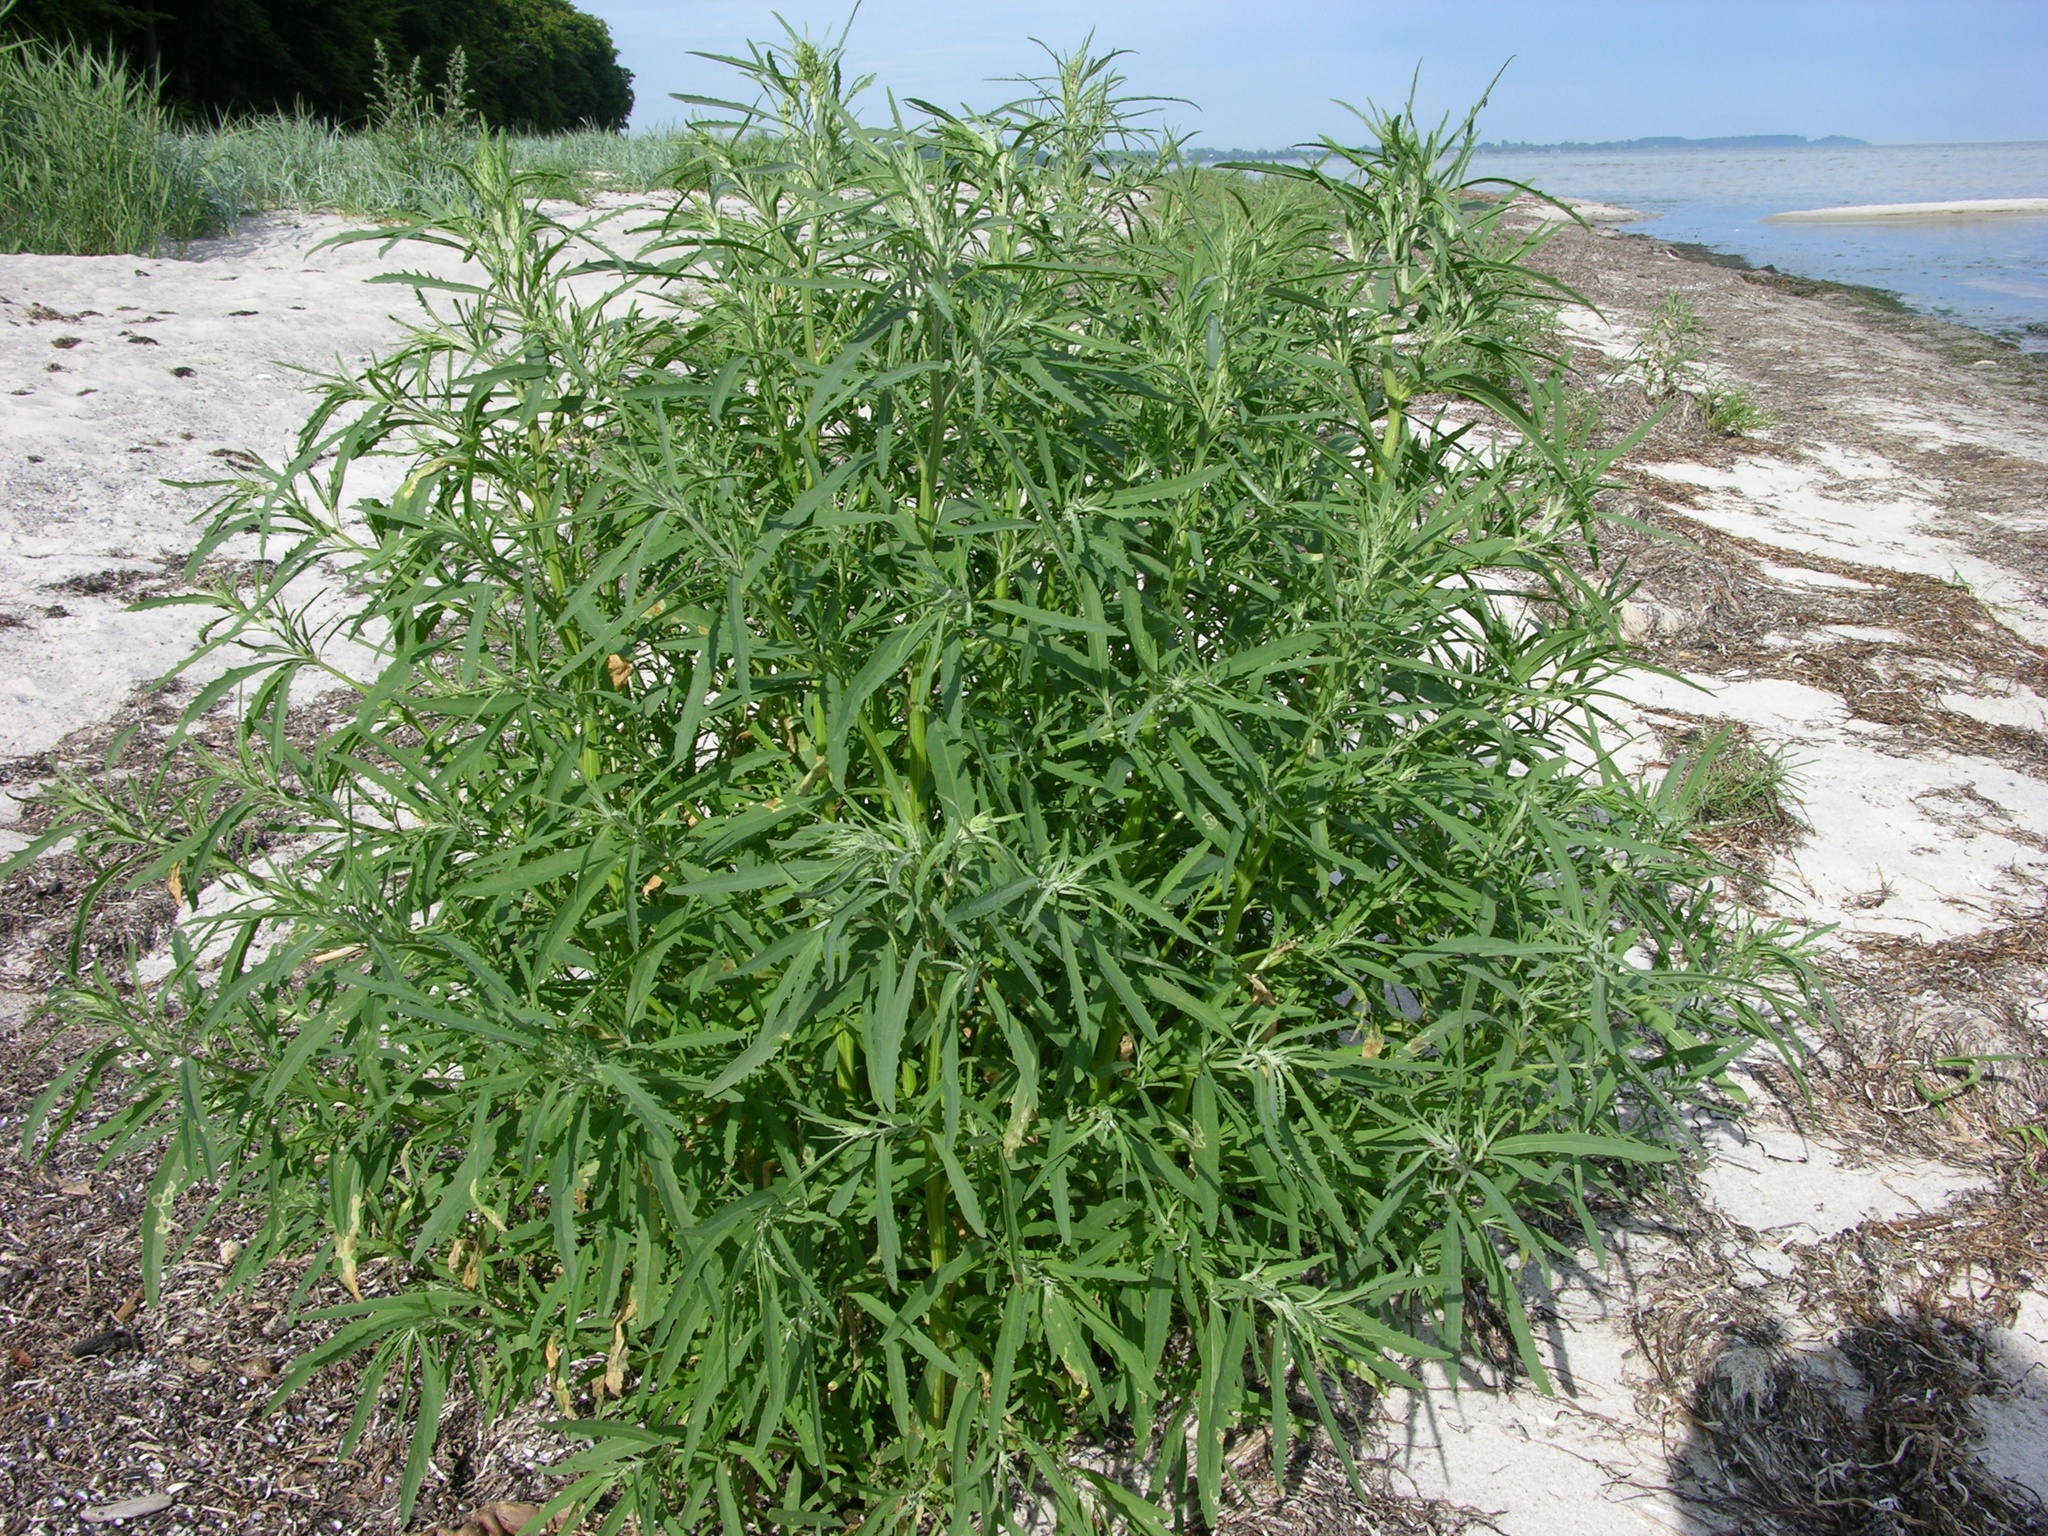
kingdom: Plantae
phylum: Tracheophyta
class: Magnoliopsida
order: Caryophyllales
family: Amaranthaceae
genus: Atriplex
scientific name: Atriplex littoralis
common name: Grass-leaved orache
